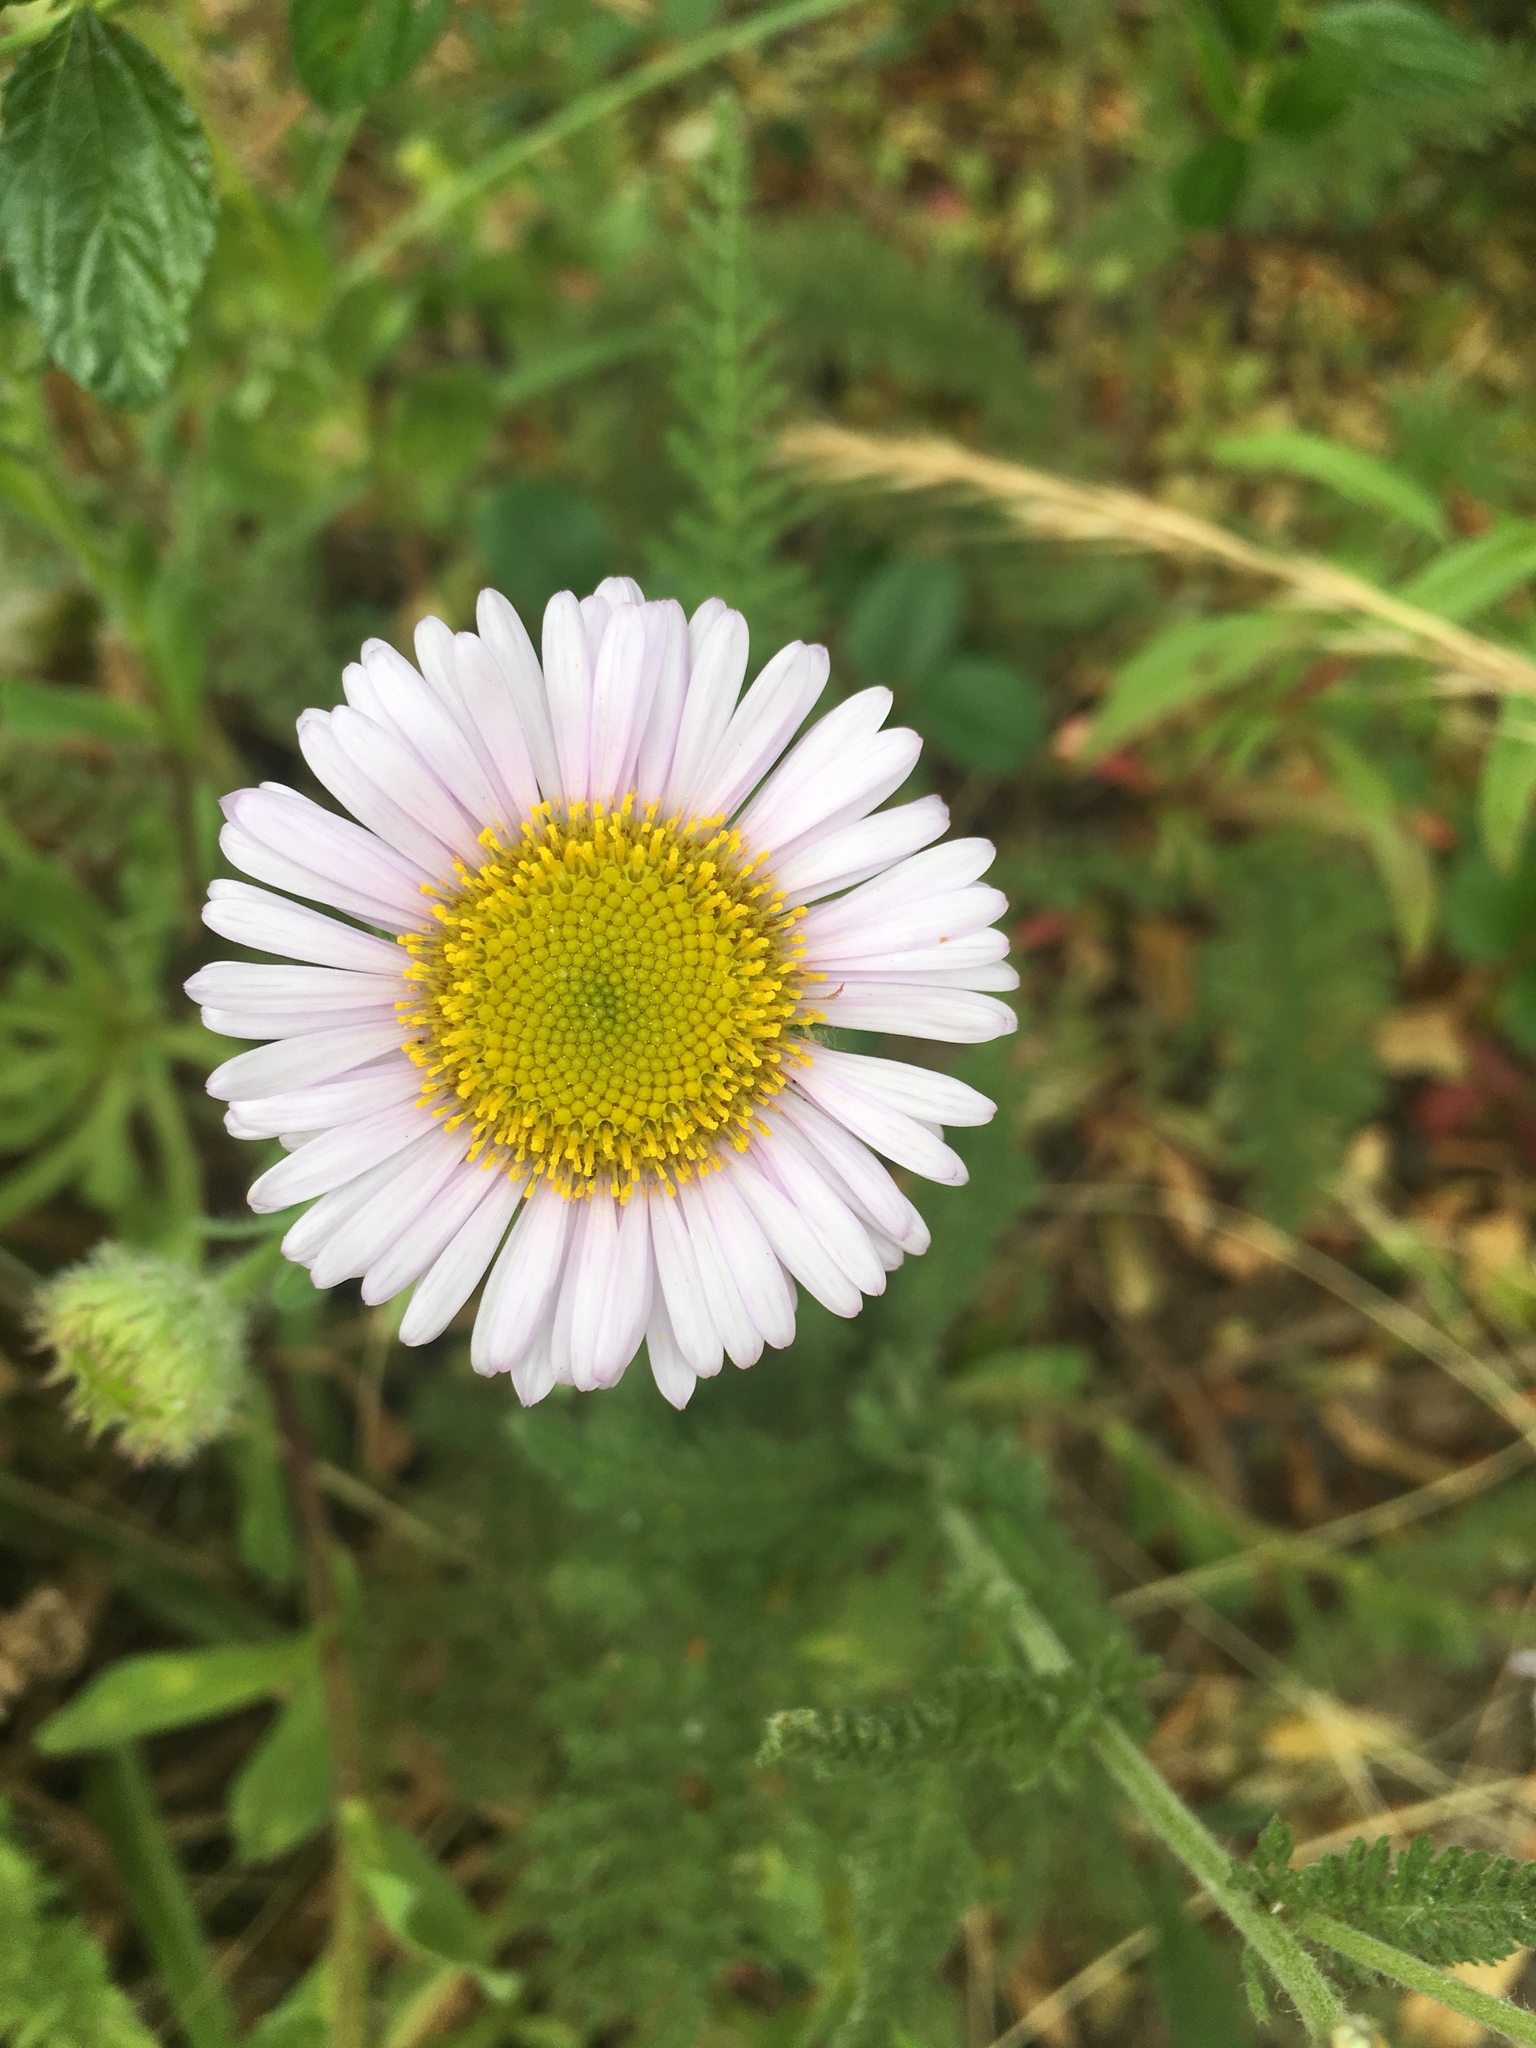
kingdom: Plantae
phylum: Tracheophyta
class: Magnoliopsida
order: Asterales
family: Asteraceae
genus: Erigeron
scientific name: Erigeron glaucus
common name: Seaside daisy
